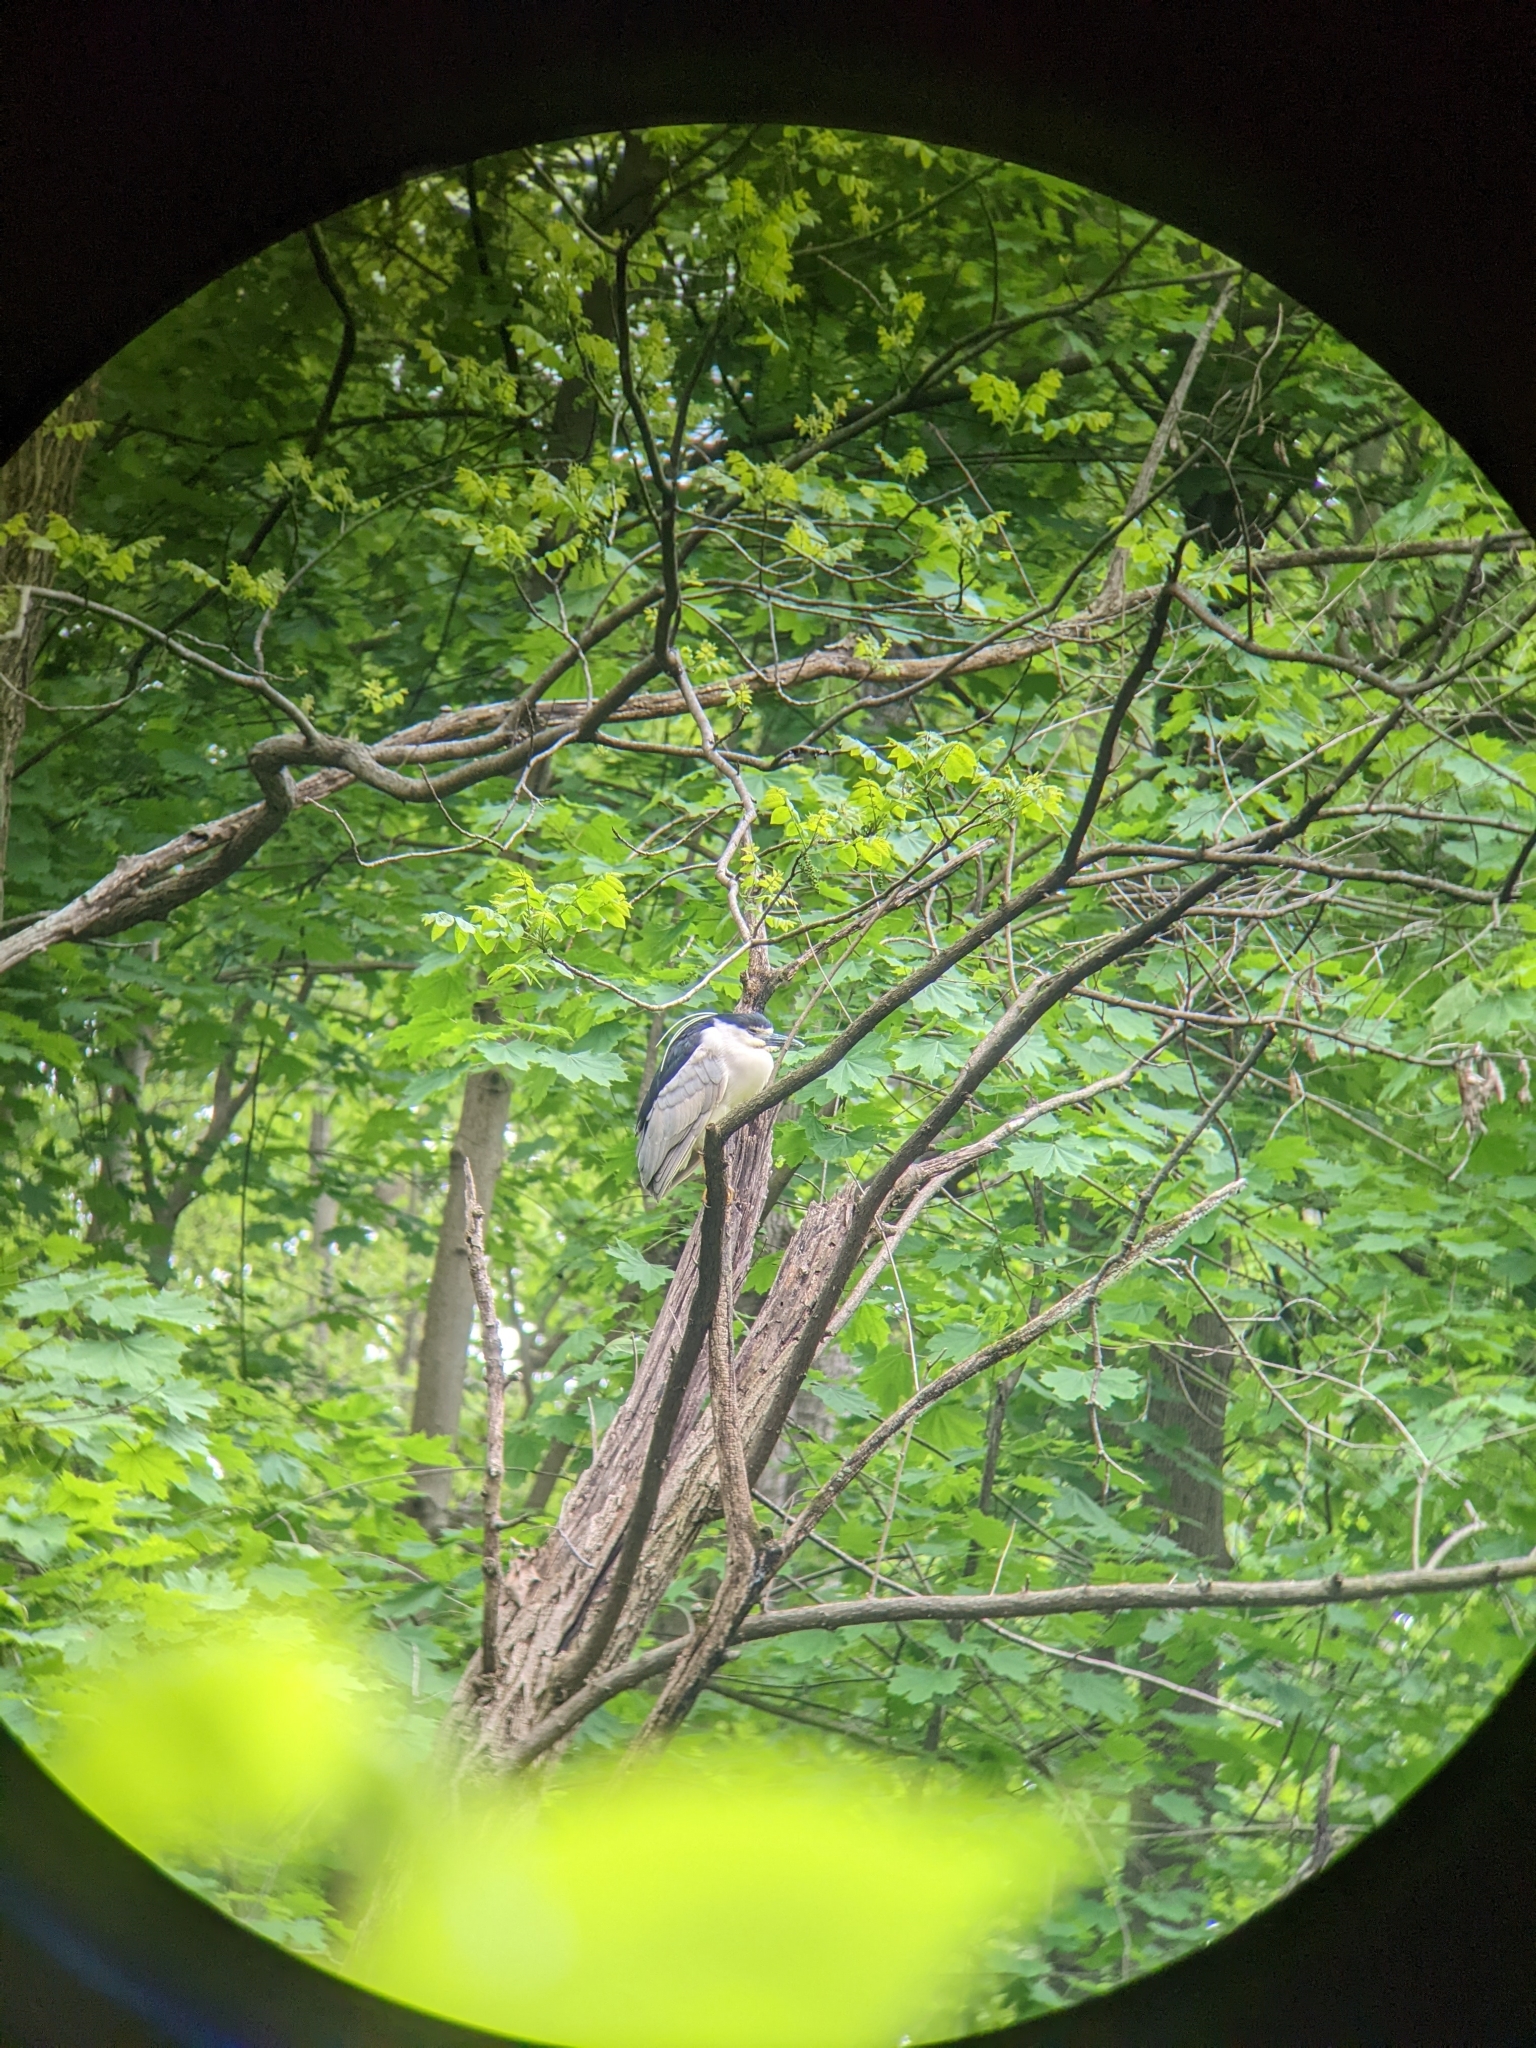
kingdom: Animalia
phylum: Chordata
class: Aves
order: Pelecaniformes
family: Ardeidae
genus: Nycticorax
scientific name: Nycticorax nycticorax
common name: Black-crowned night heron
